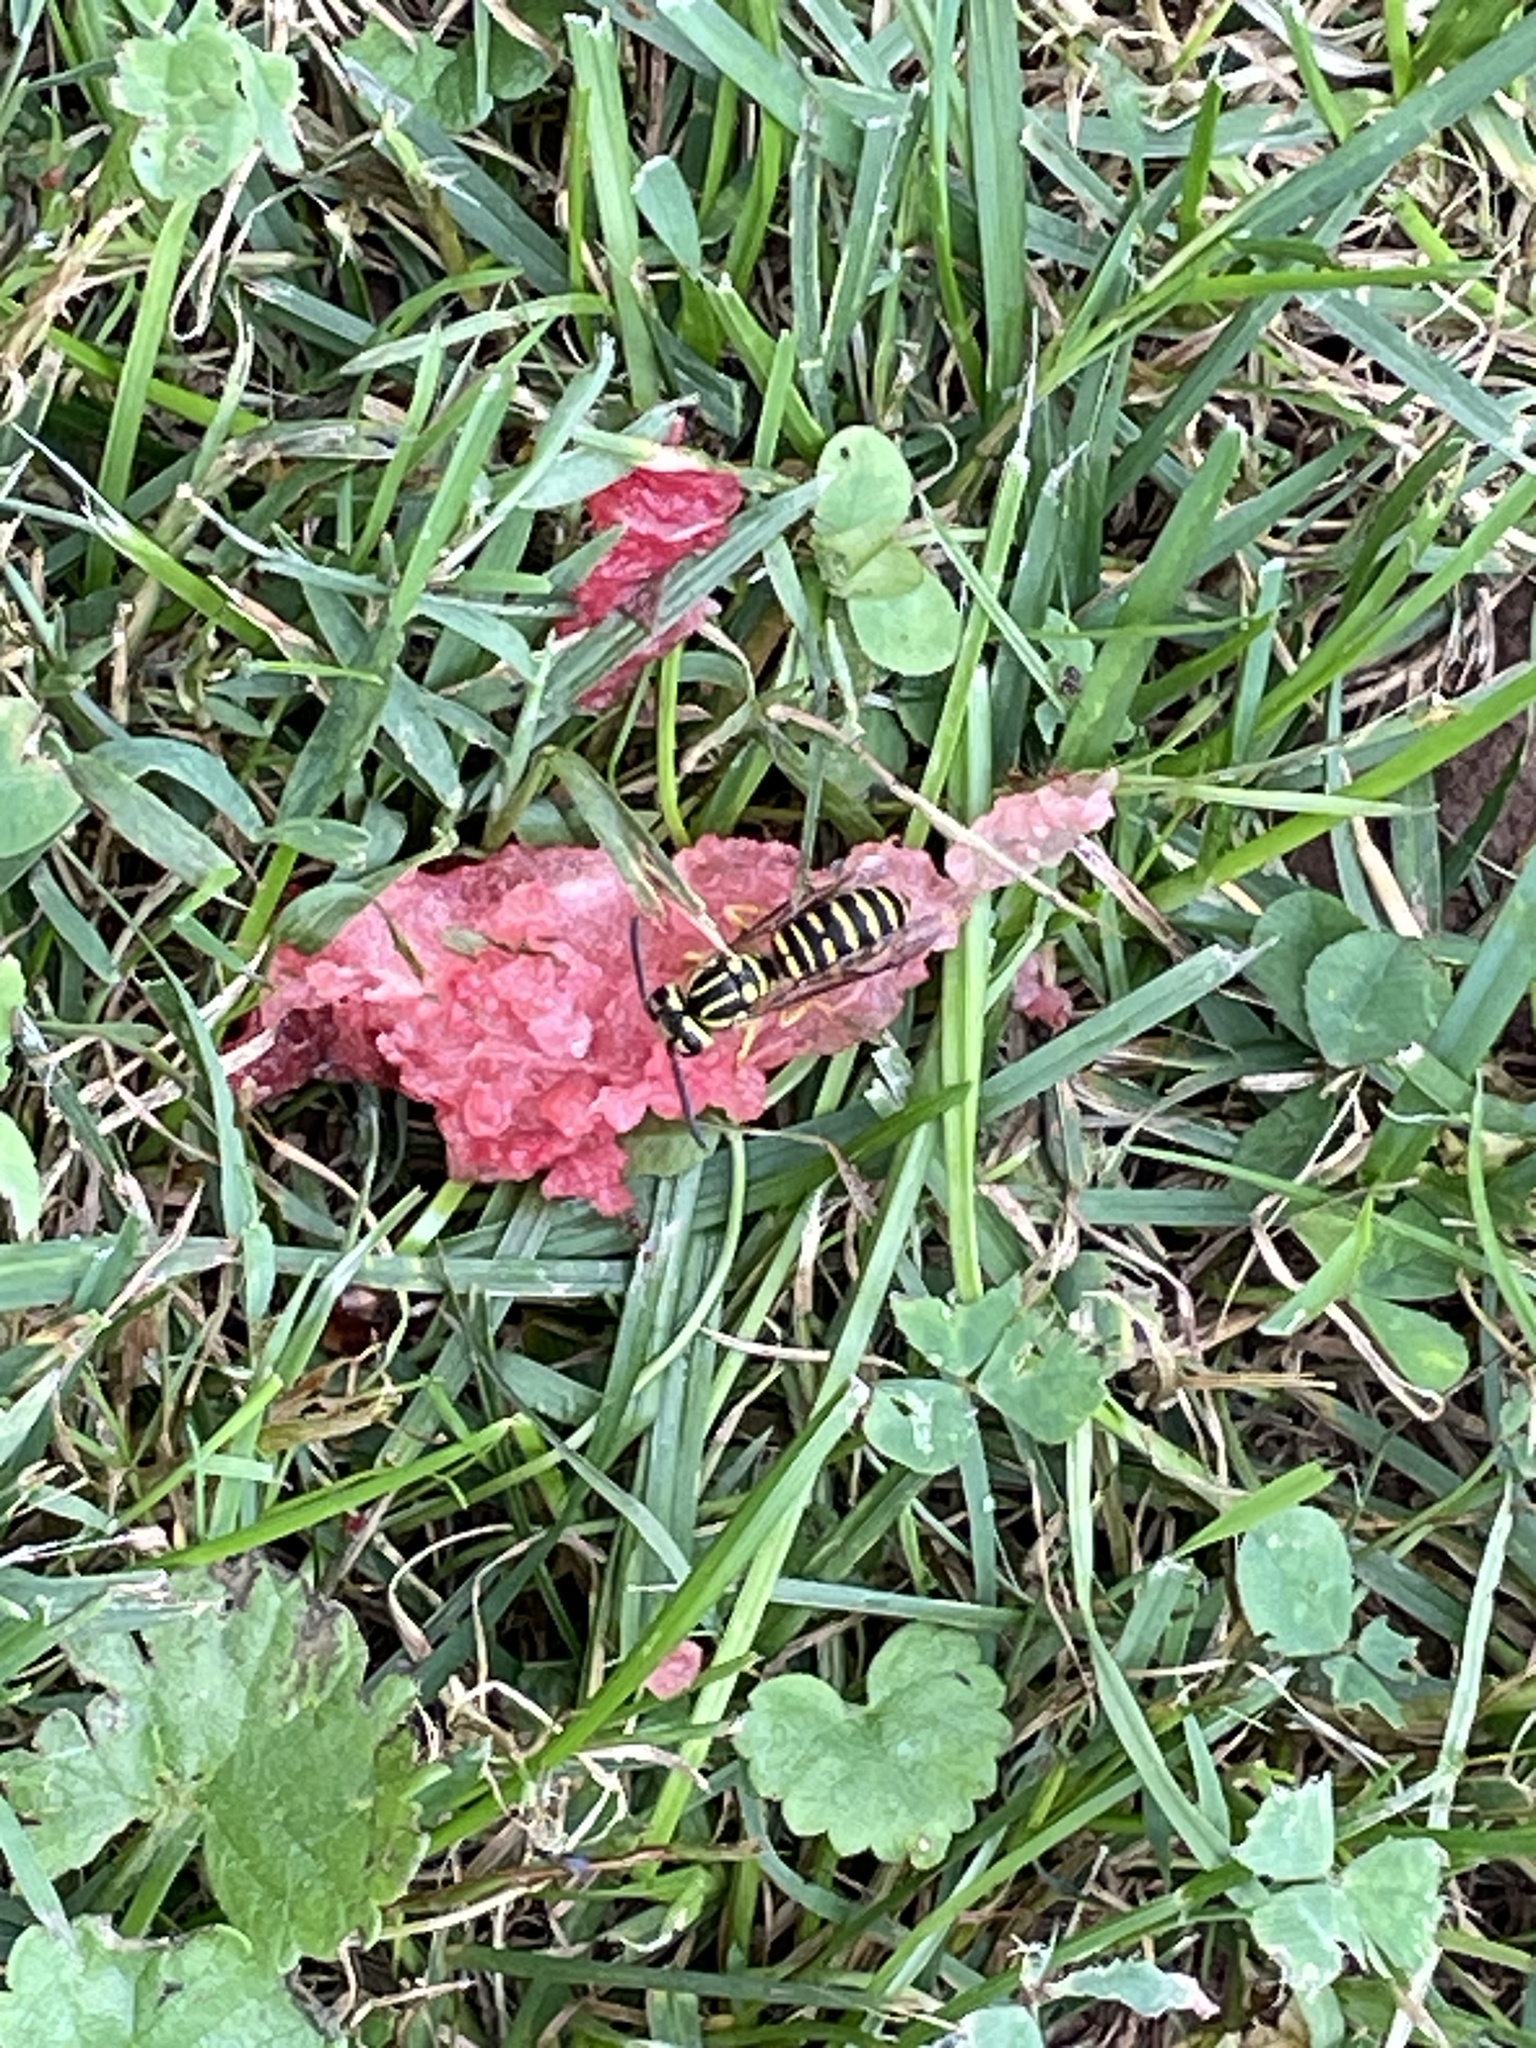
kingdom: Animalia
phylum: Arthropoda
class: Insecta
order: Hymenoptera
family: Vespidae
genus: Vespula
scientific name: Vespula squamosa
